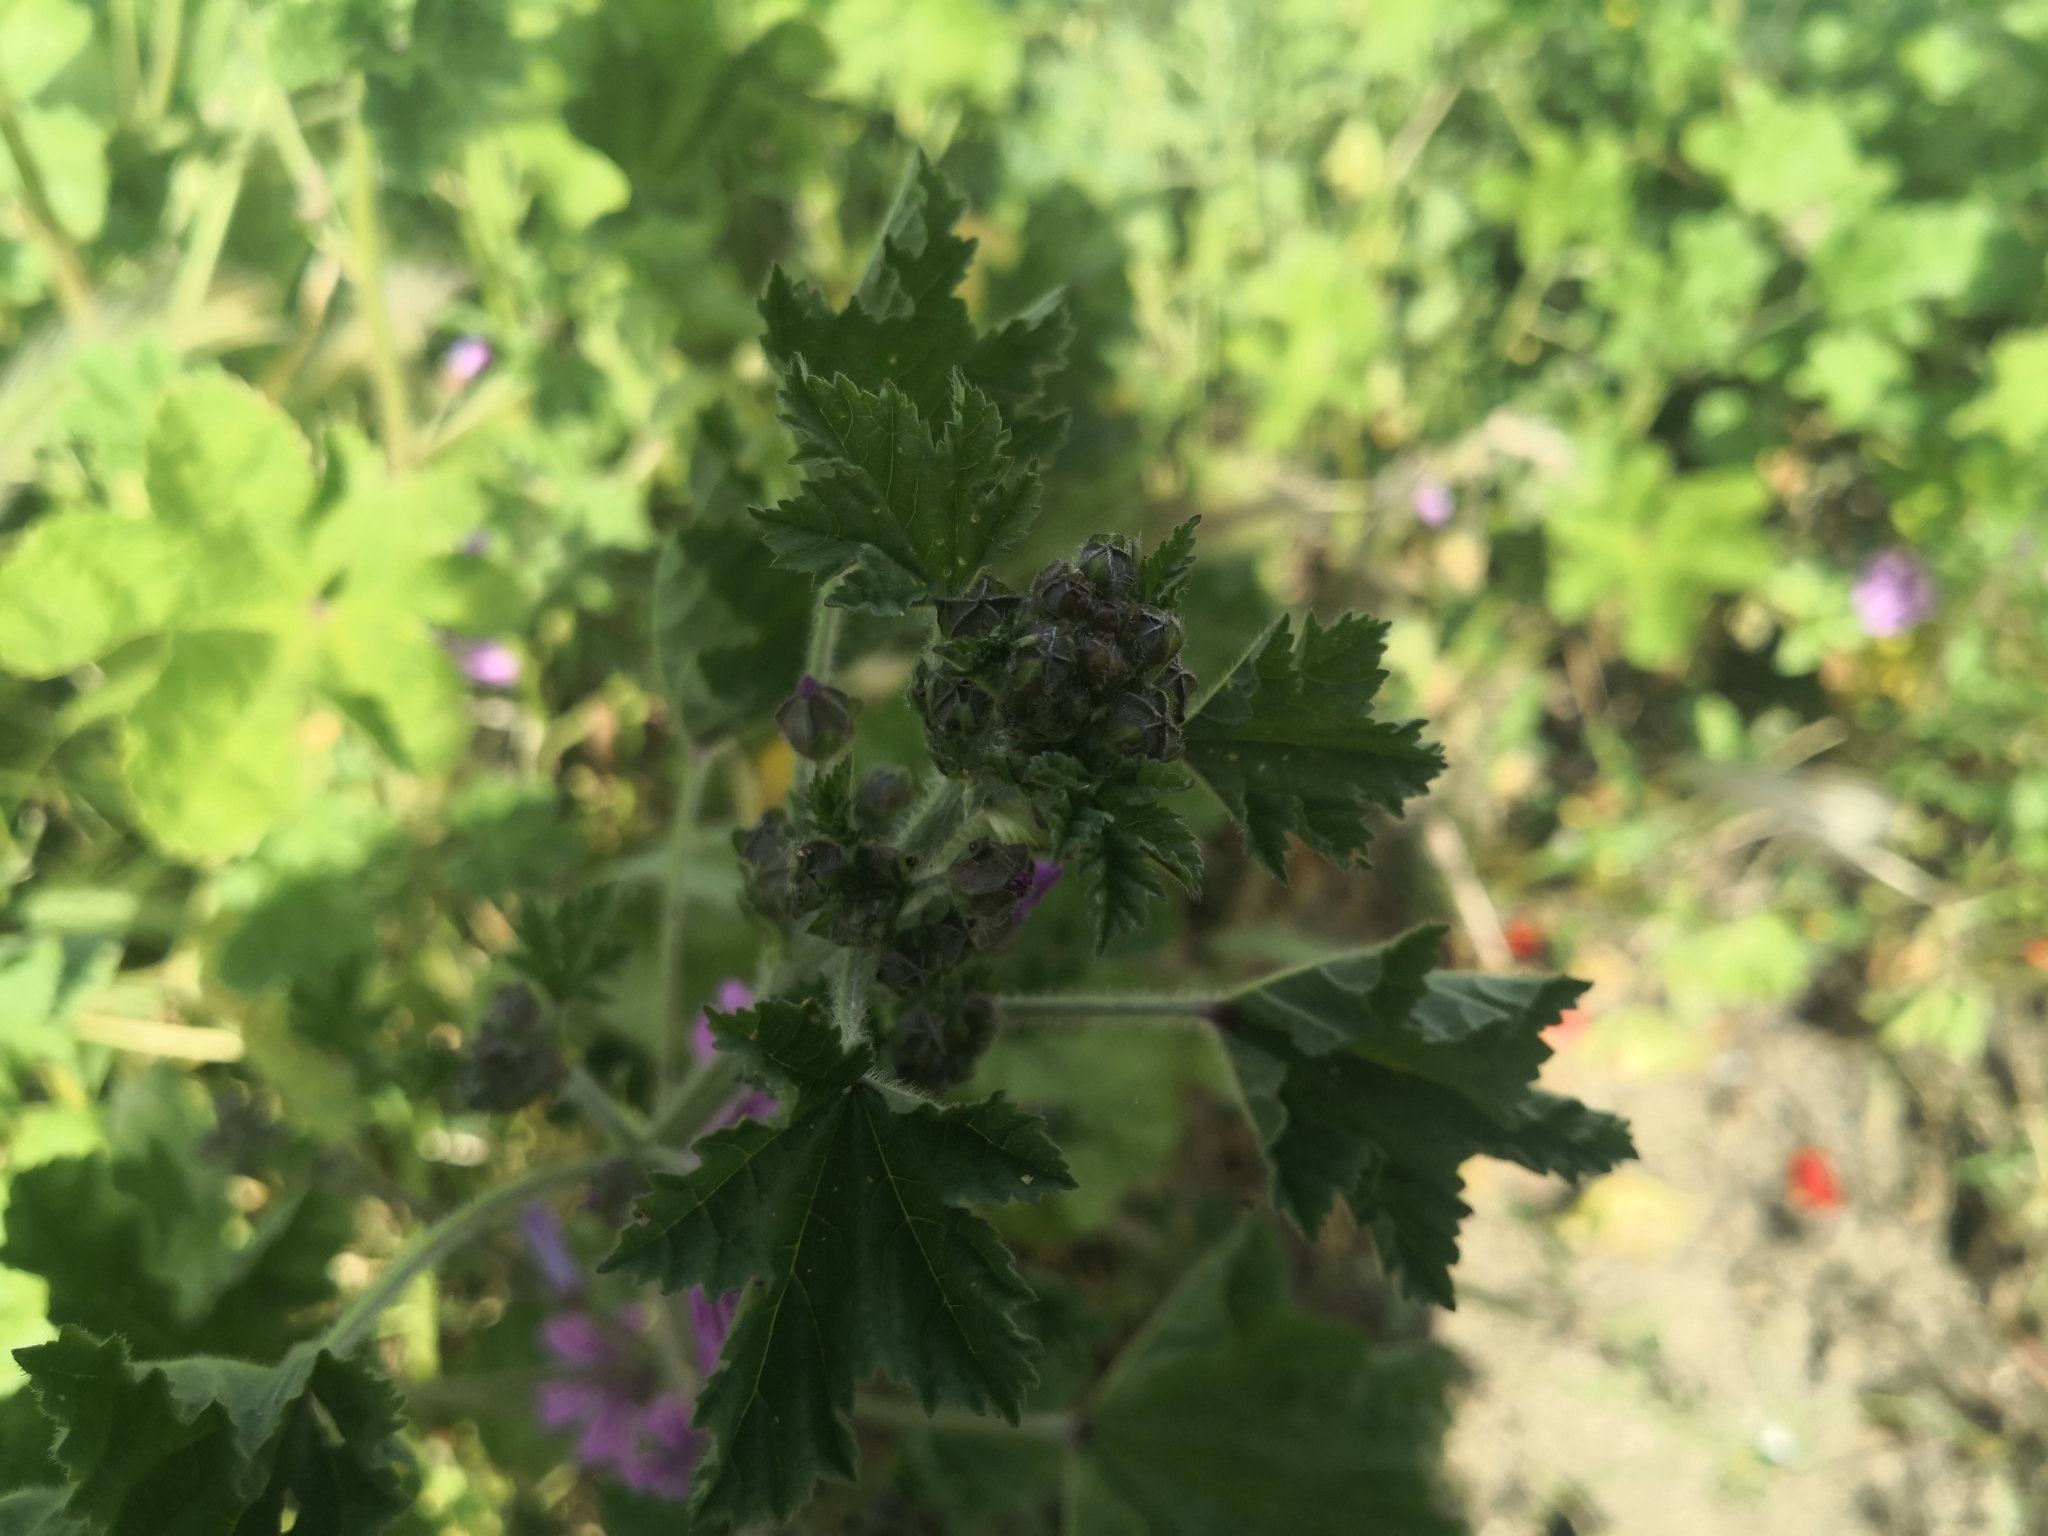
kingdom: Plantae
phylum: Tracheophyta
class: Magnoliopsida
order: Malvales
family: Malvaceae
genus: Malva
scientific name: Malva sylvestris
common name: Common mallow
